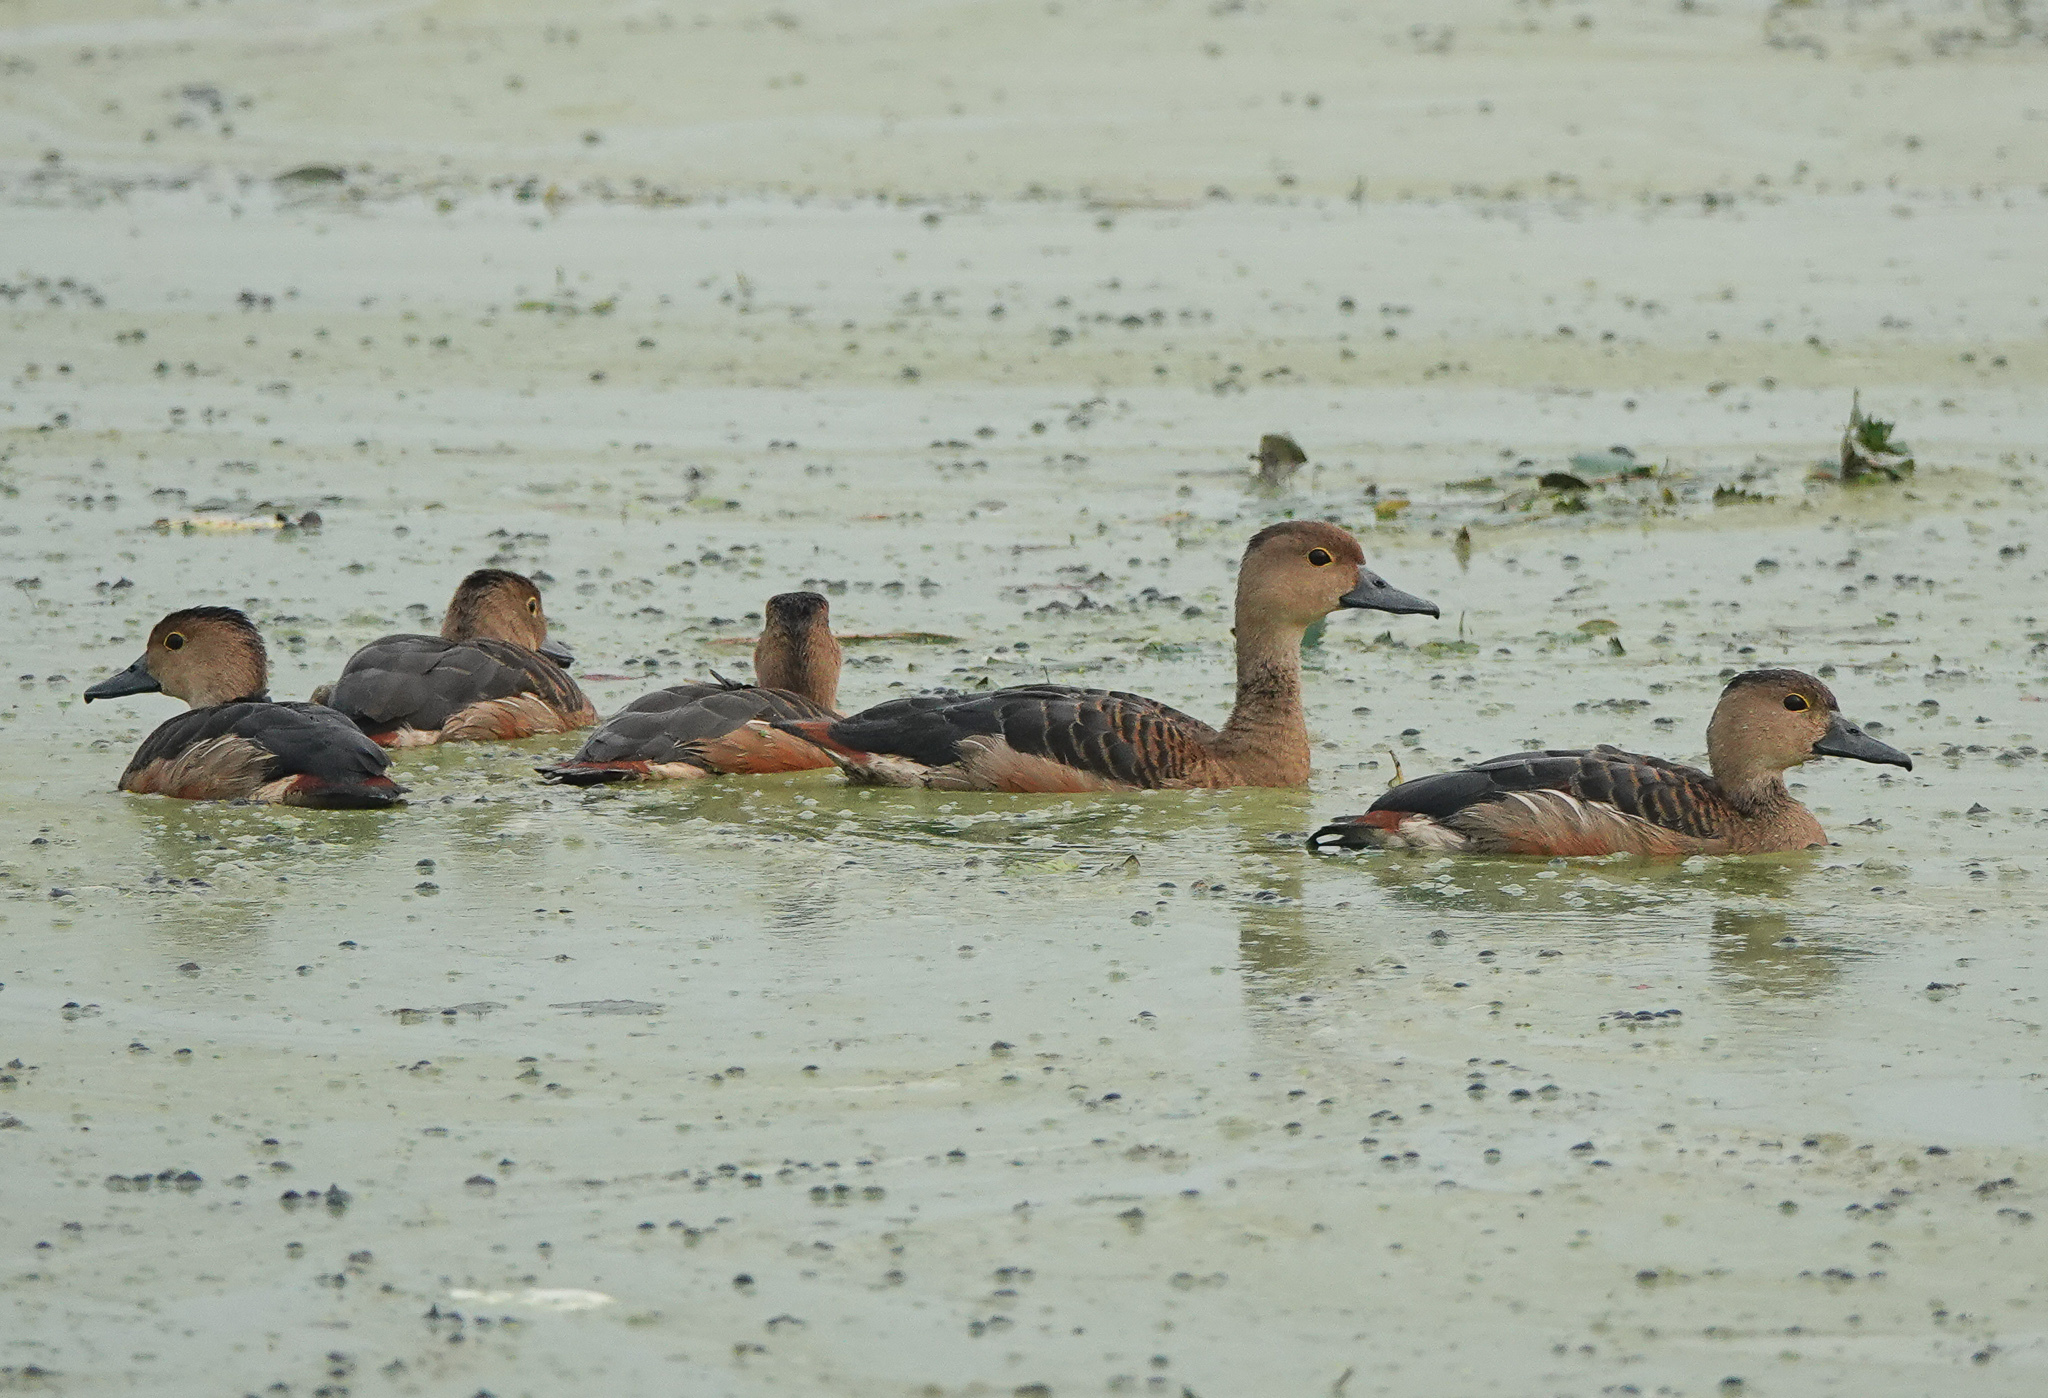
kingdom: Animalia
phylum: Chordata
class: Aves
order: Anseriformes
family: Anatidae
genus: Dendrocygna
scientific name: Dendrocygna javanica
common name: Lesser whistling-duck
